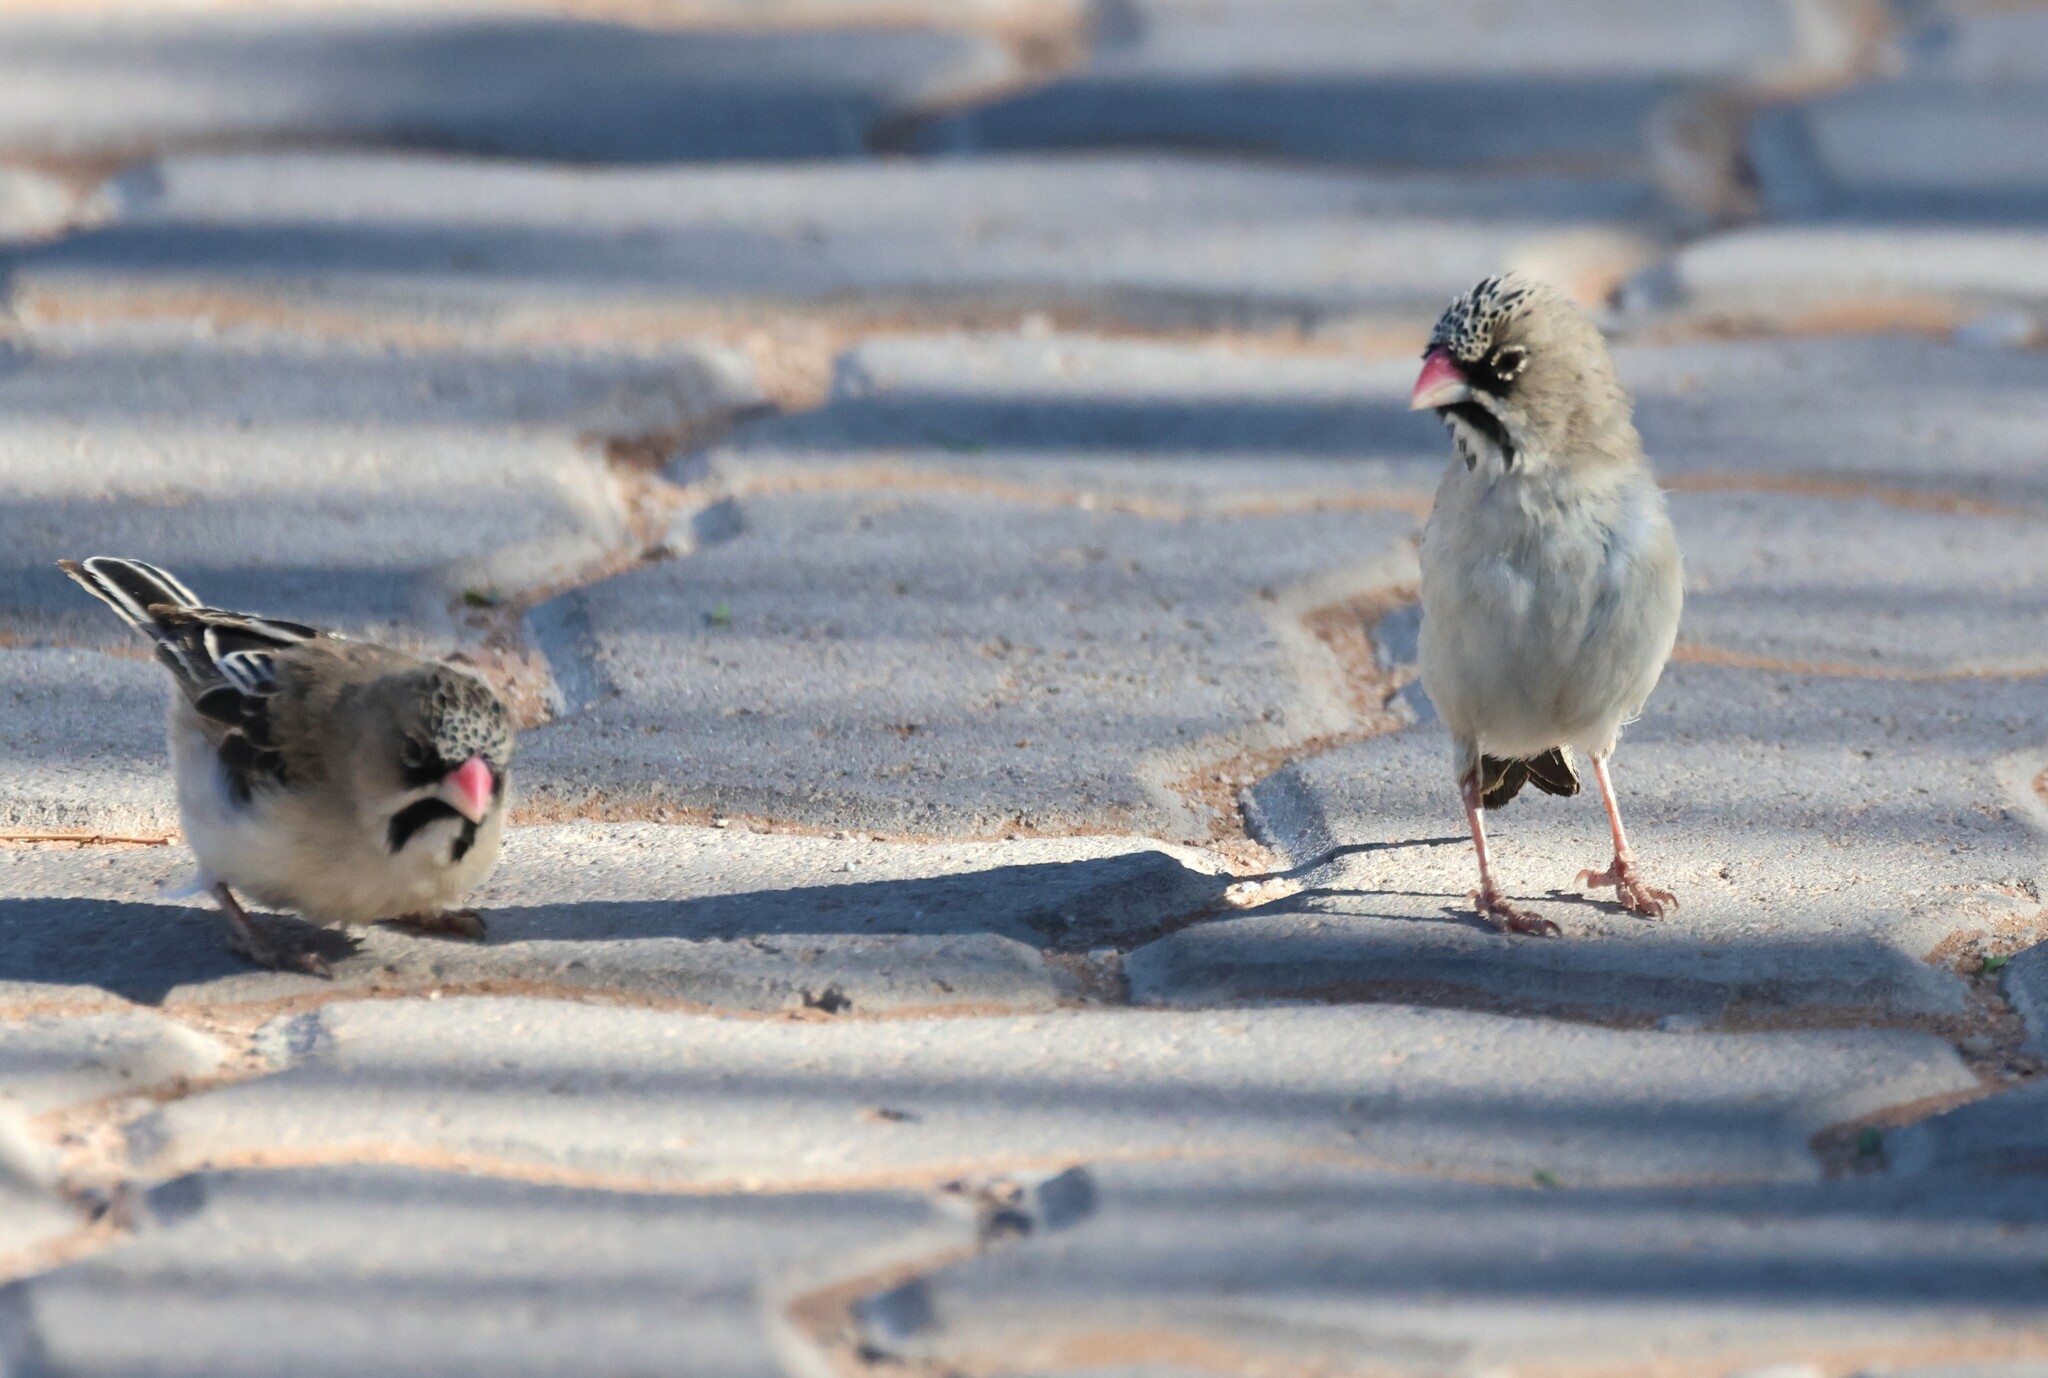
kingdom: Animalia
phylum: Chordata
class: Aves
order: Passeriformes
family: Ploceidae
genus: Sporopipes
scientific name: Sporopipes squamifrons
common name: Scaly-feathered weaver
